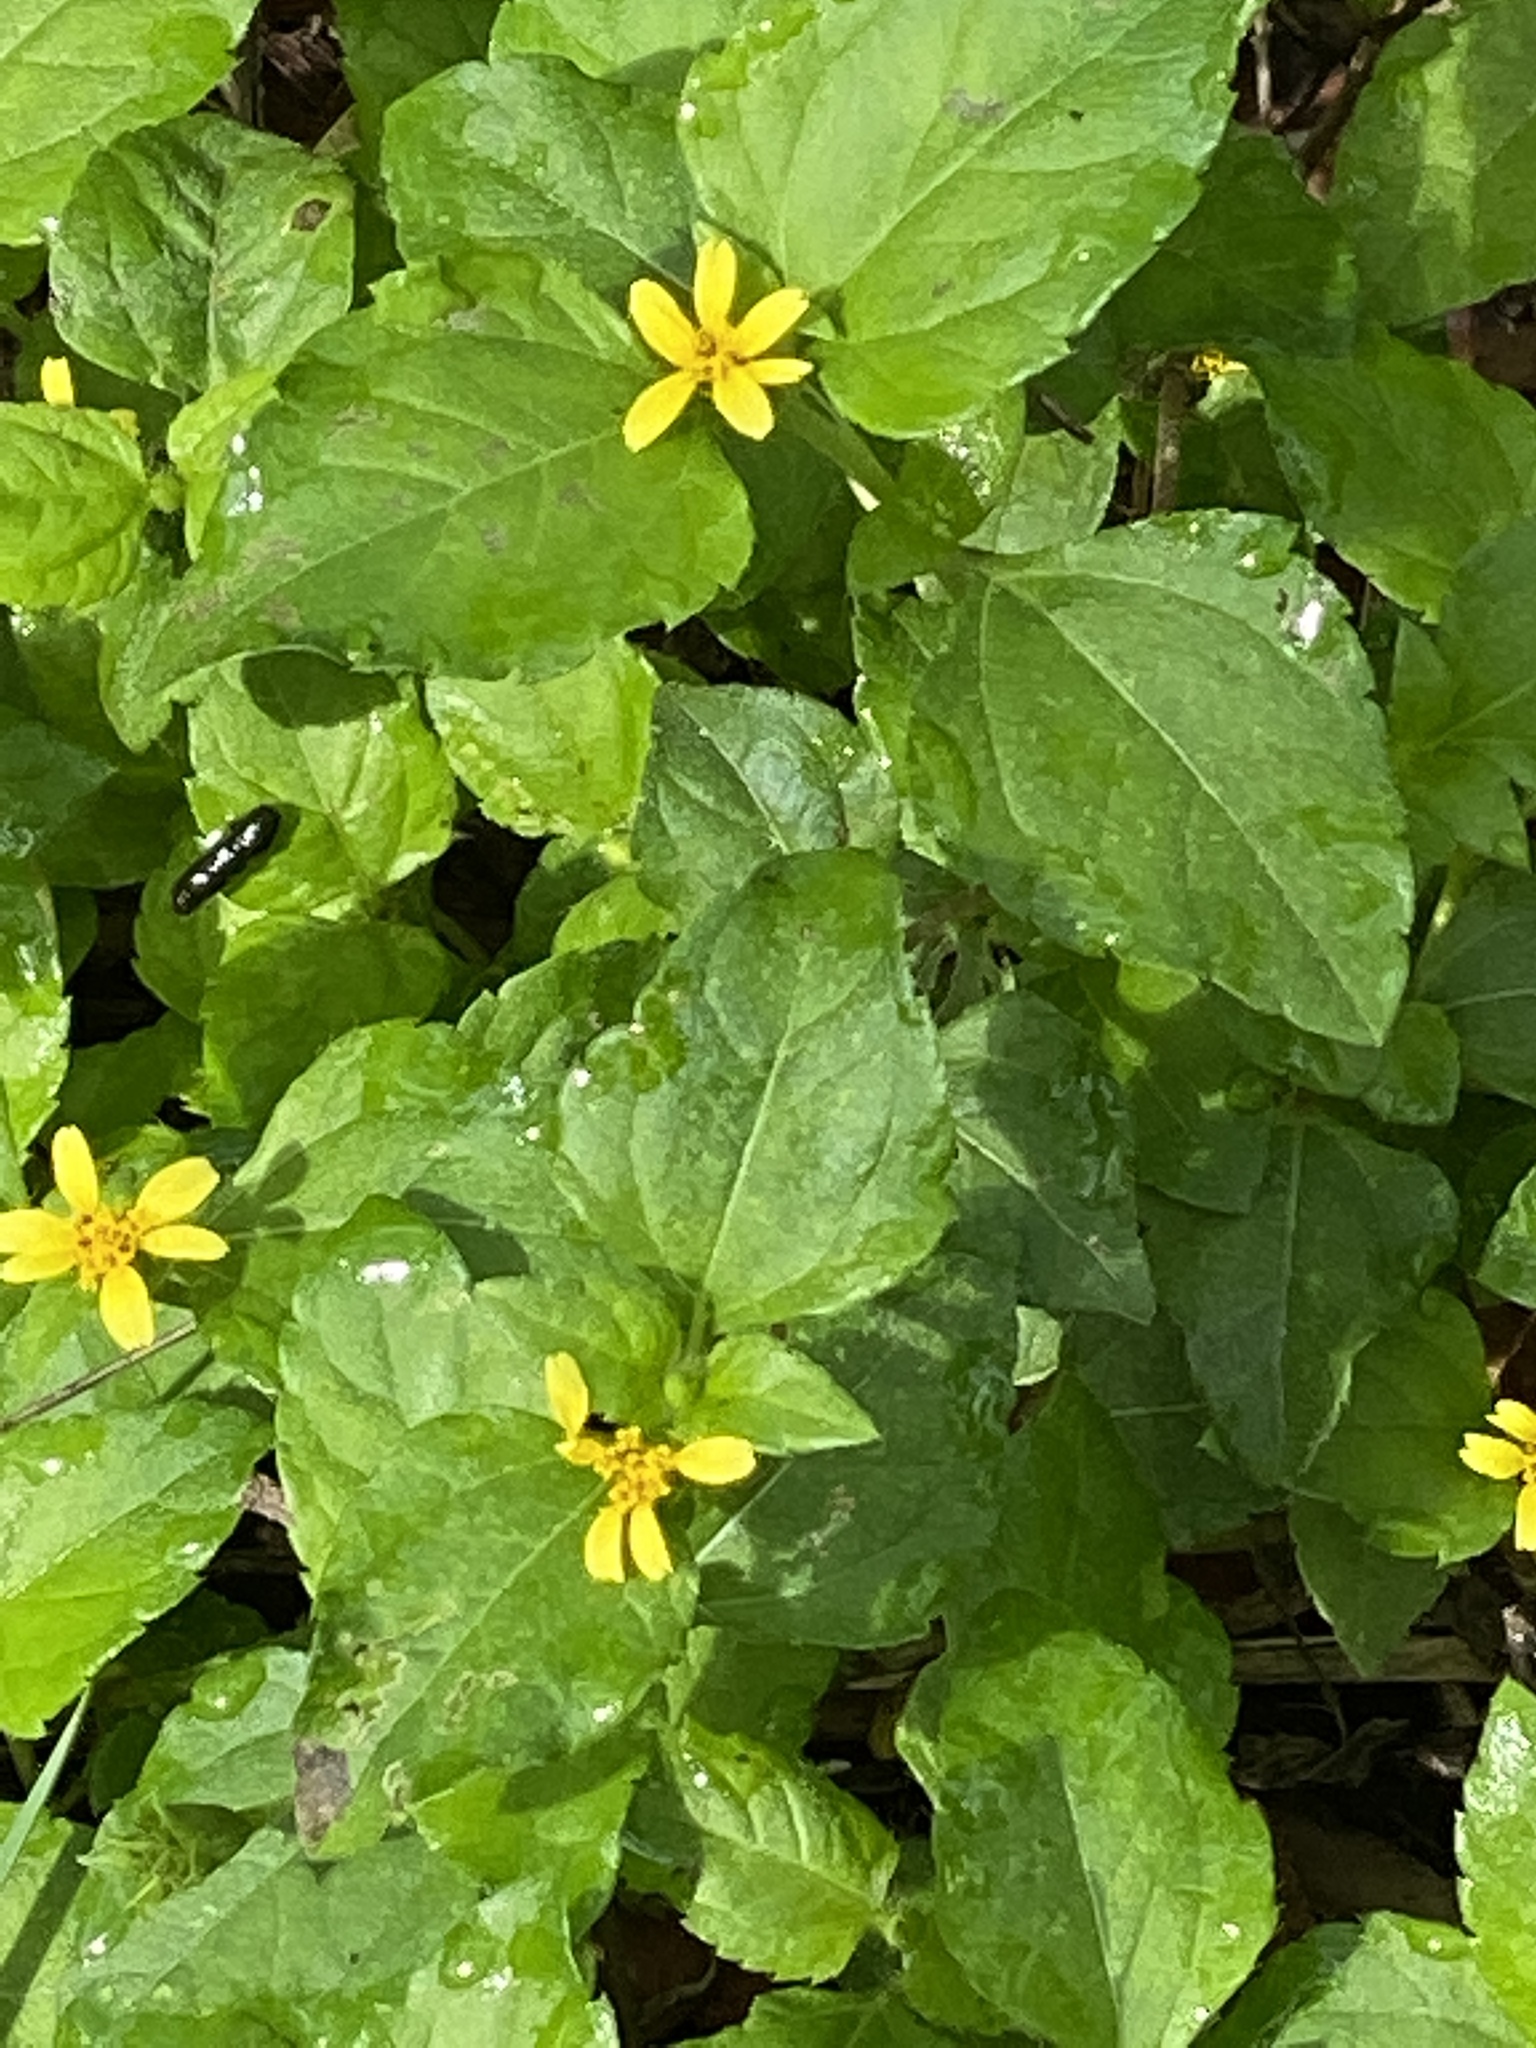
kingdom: Plantae
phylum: Tracheophyta
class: Magnoliopsida
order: Asterales
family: Asteraceae
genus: Calyptocarpus
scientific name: Calyptocarpus vialis
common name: Straggler daisy
